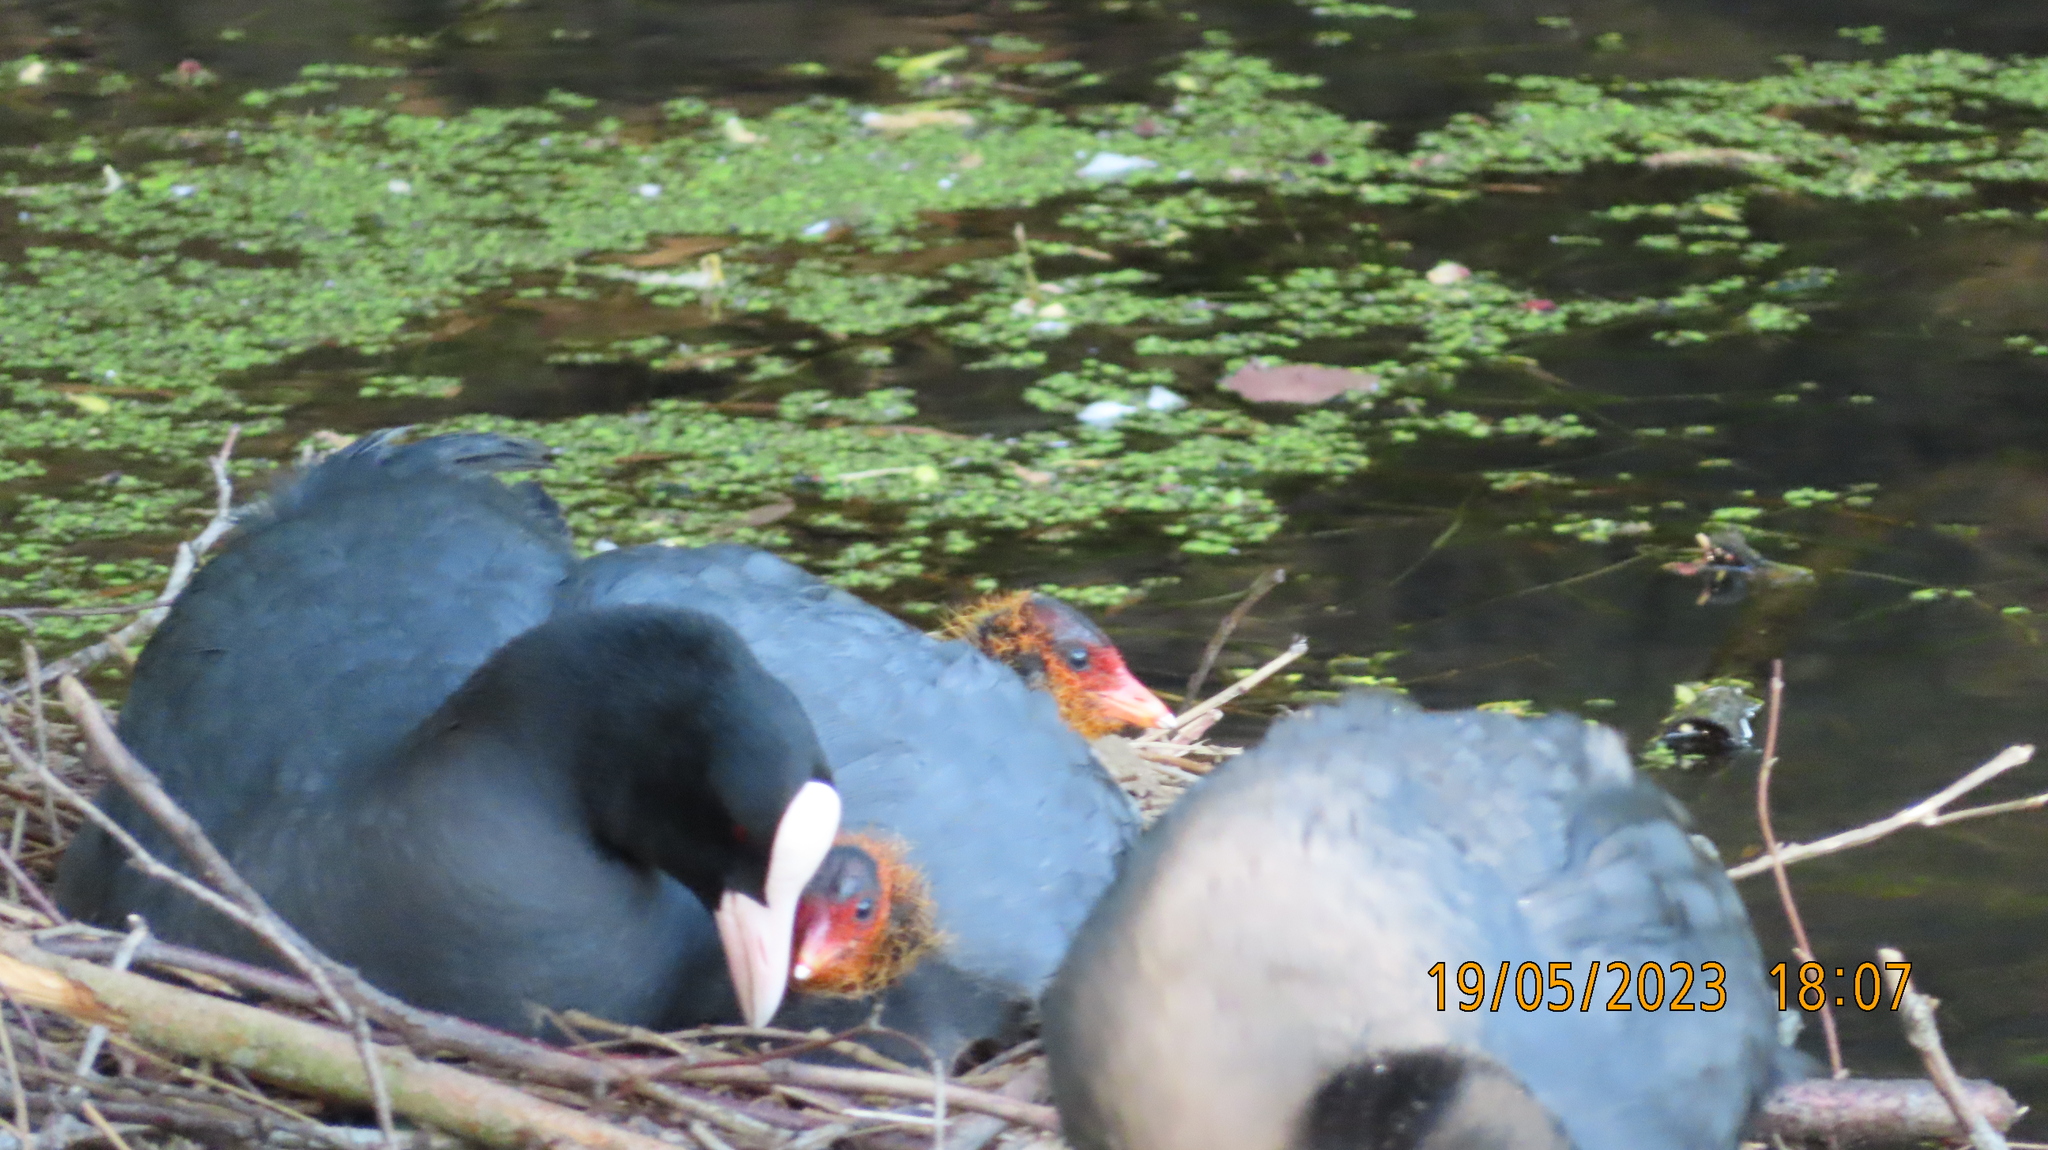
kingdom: Animalia
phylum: Chordata
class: Aves
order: Gruiformes
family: Rallidae
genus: Fulica
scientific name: Fulica atra
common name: Eurasian coot
